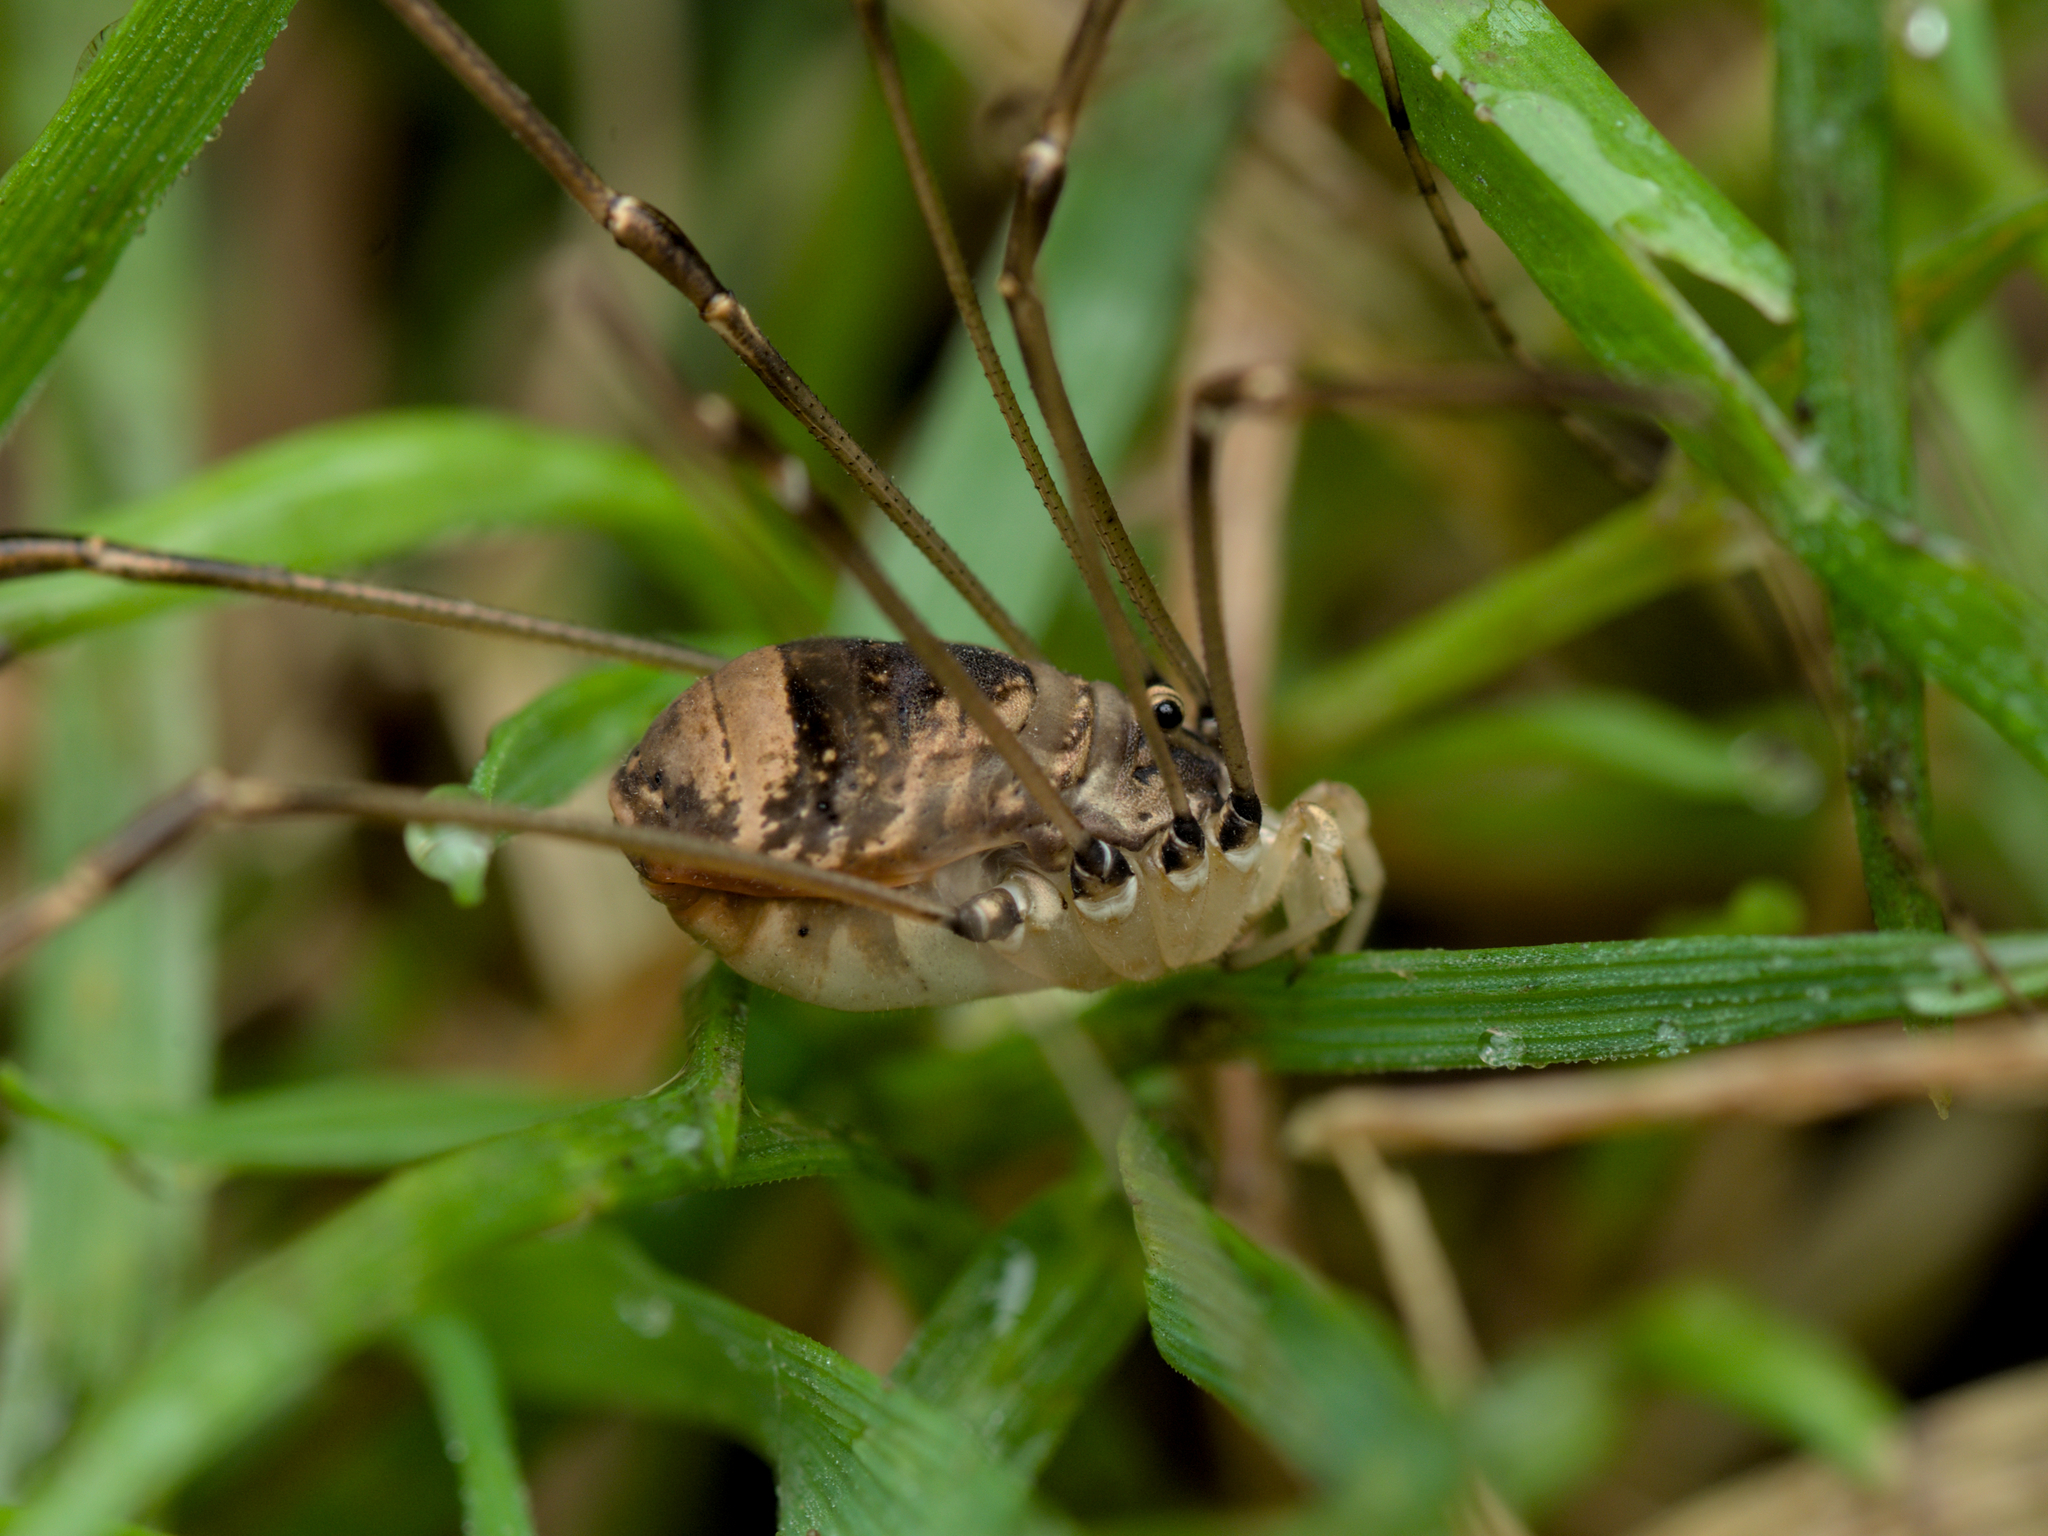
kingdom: Animalia
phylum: Arthropoda
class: Arachnida
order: Opiliones
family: Sclerosomatidae
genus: Leiobunum
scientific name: Leiobunum blackwalli
